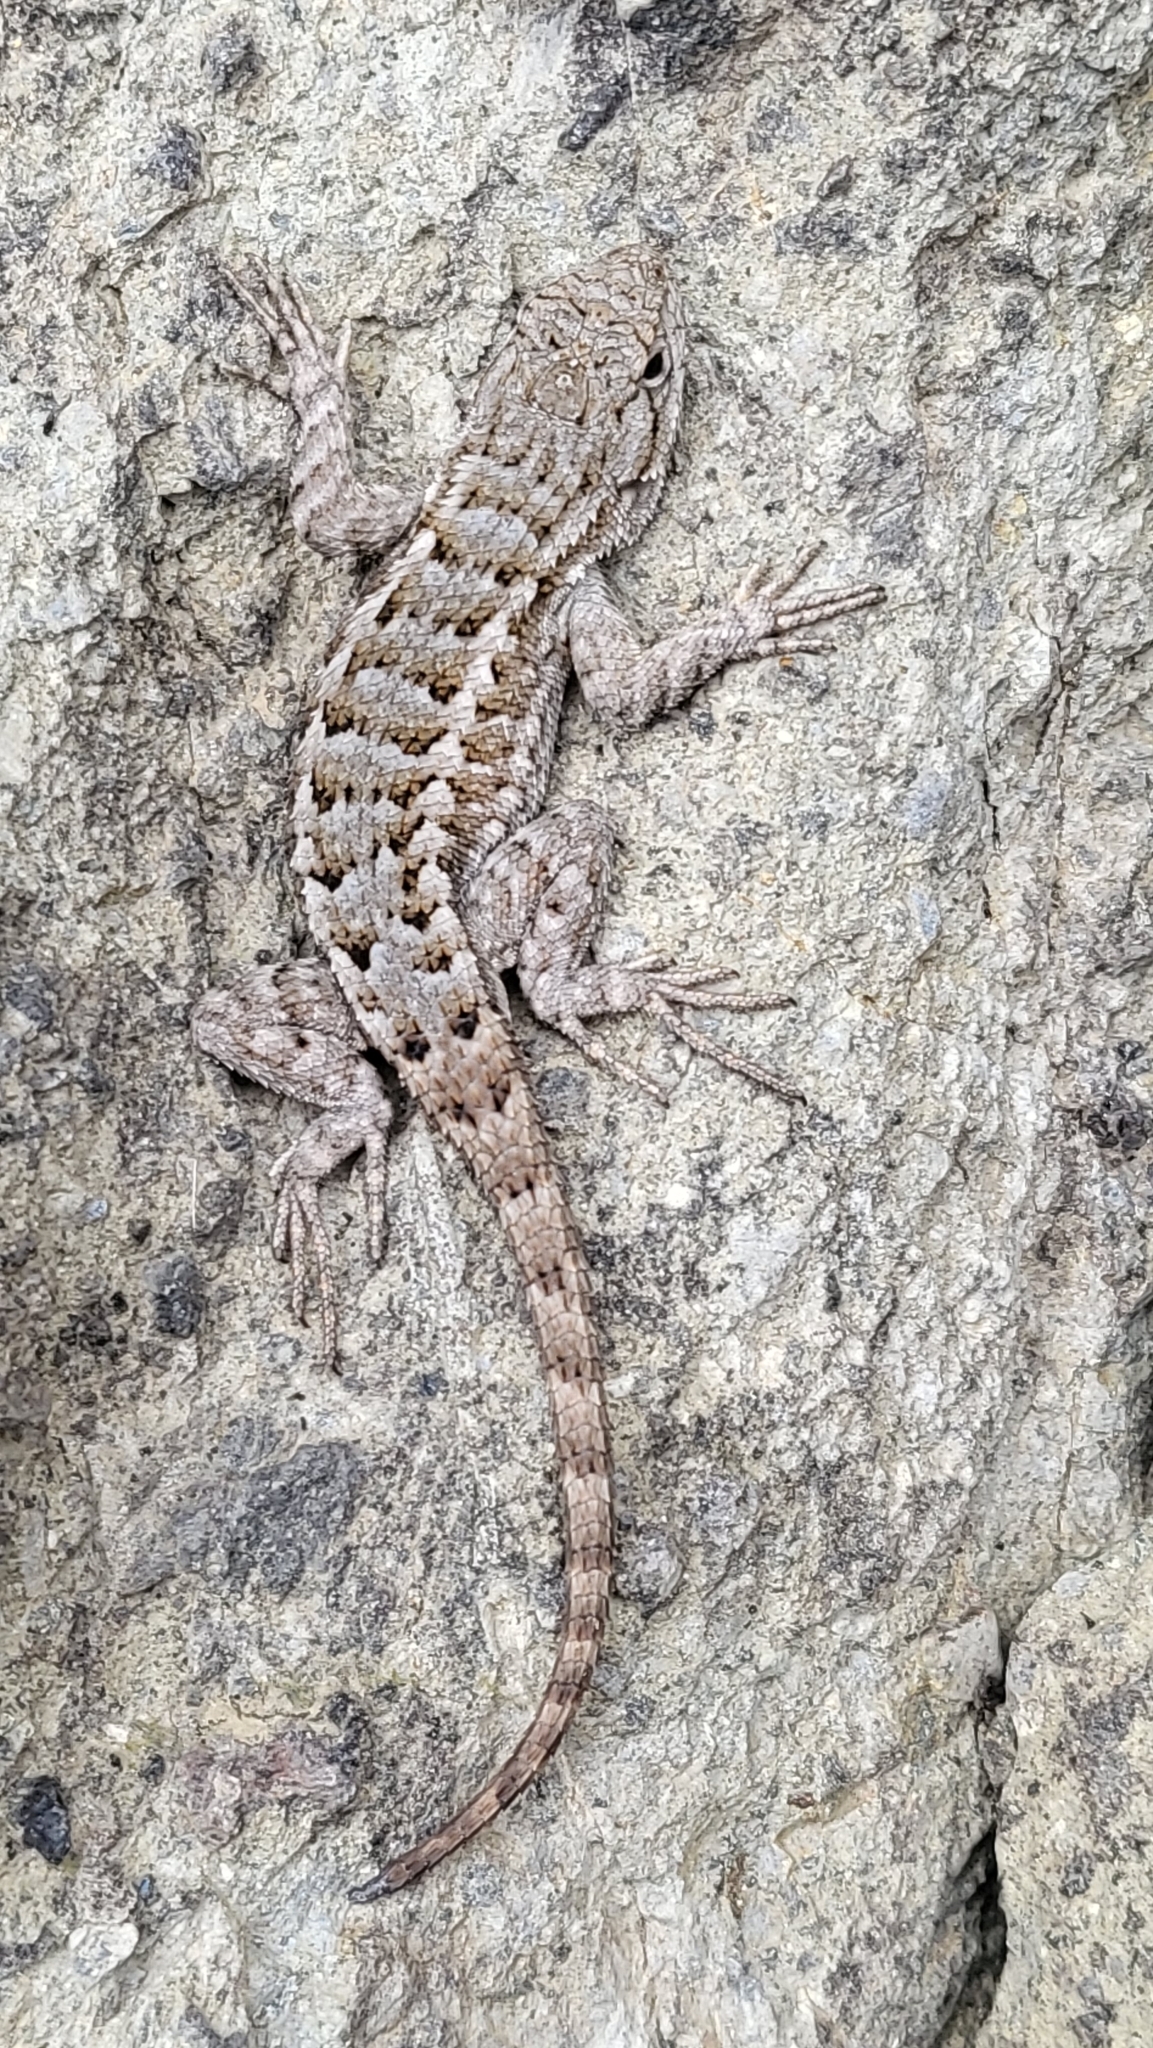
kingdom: Animalia
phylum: Chordata
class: Squamata
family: Phrynosomatidae
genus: Sceloporus
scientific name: Sceloporus occidentalis
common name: Western fence lizard
